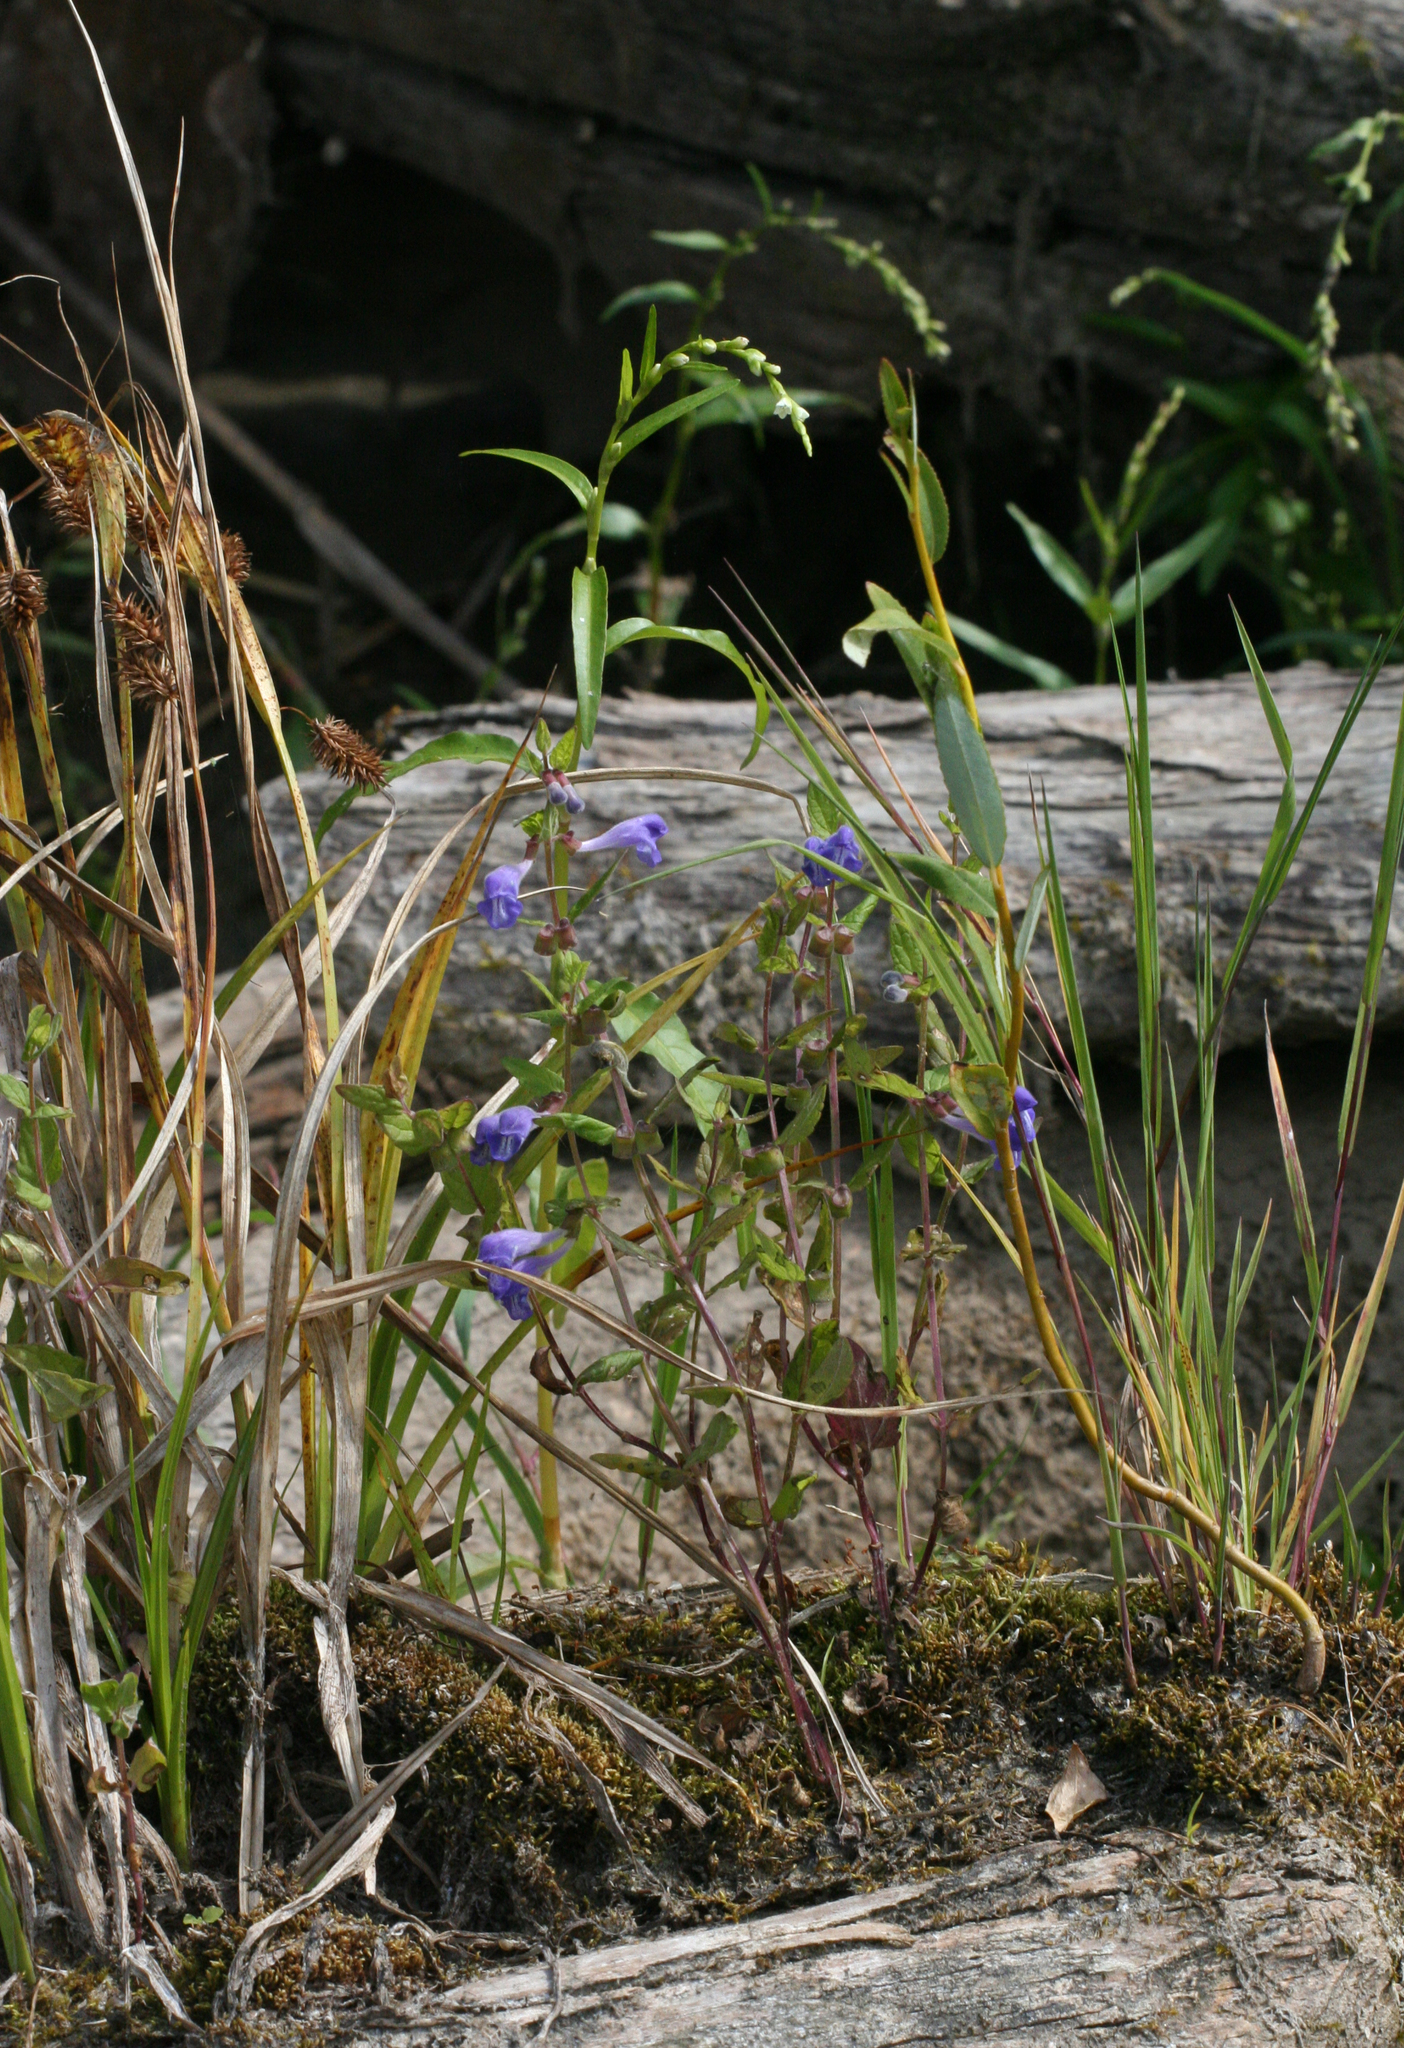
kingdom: Plantae
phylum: Tracheophyta
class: Magnoliopsida
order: Lamiales
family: Lamiaceae
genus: Scutellaria
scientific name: Scutellaria galericulata
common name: Skullcap
